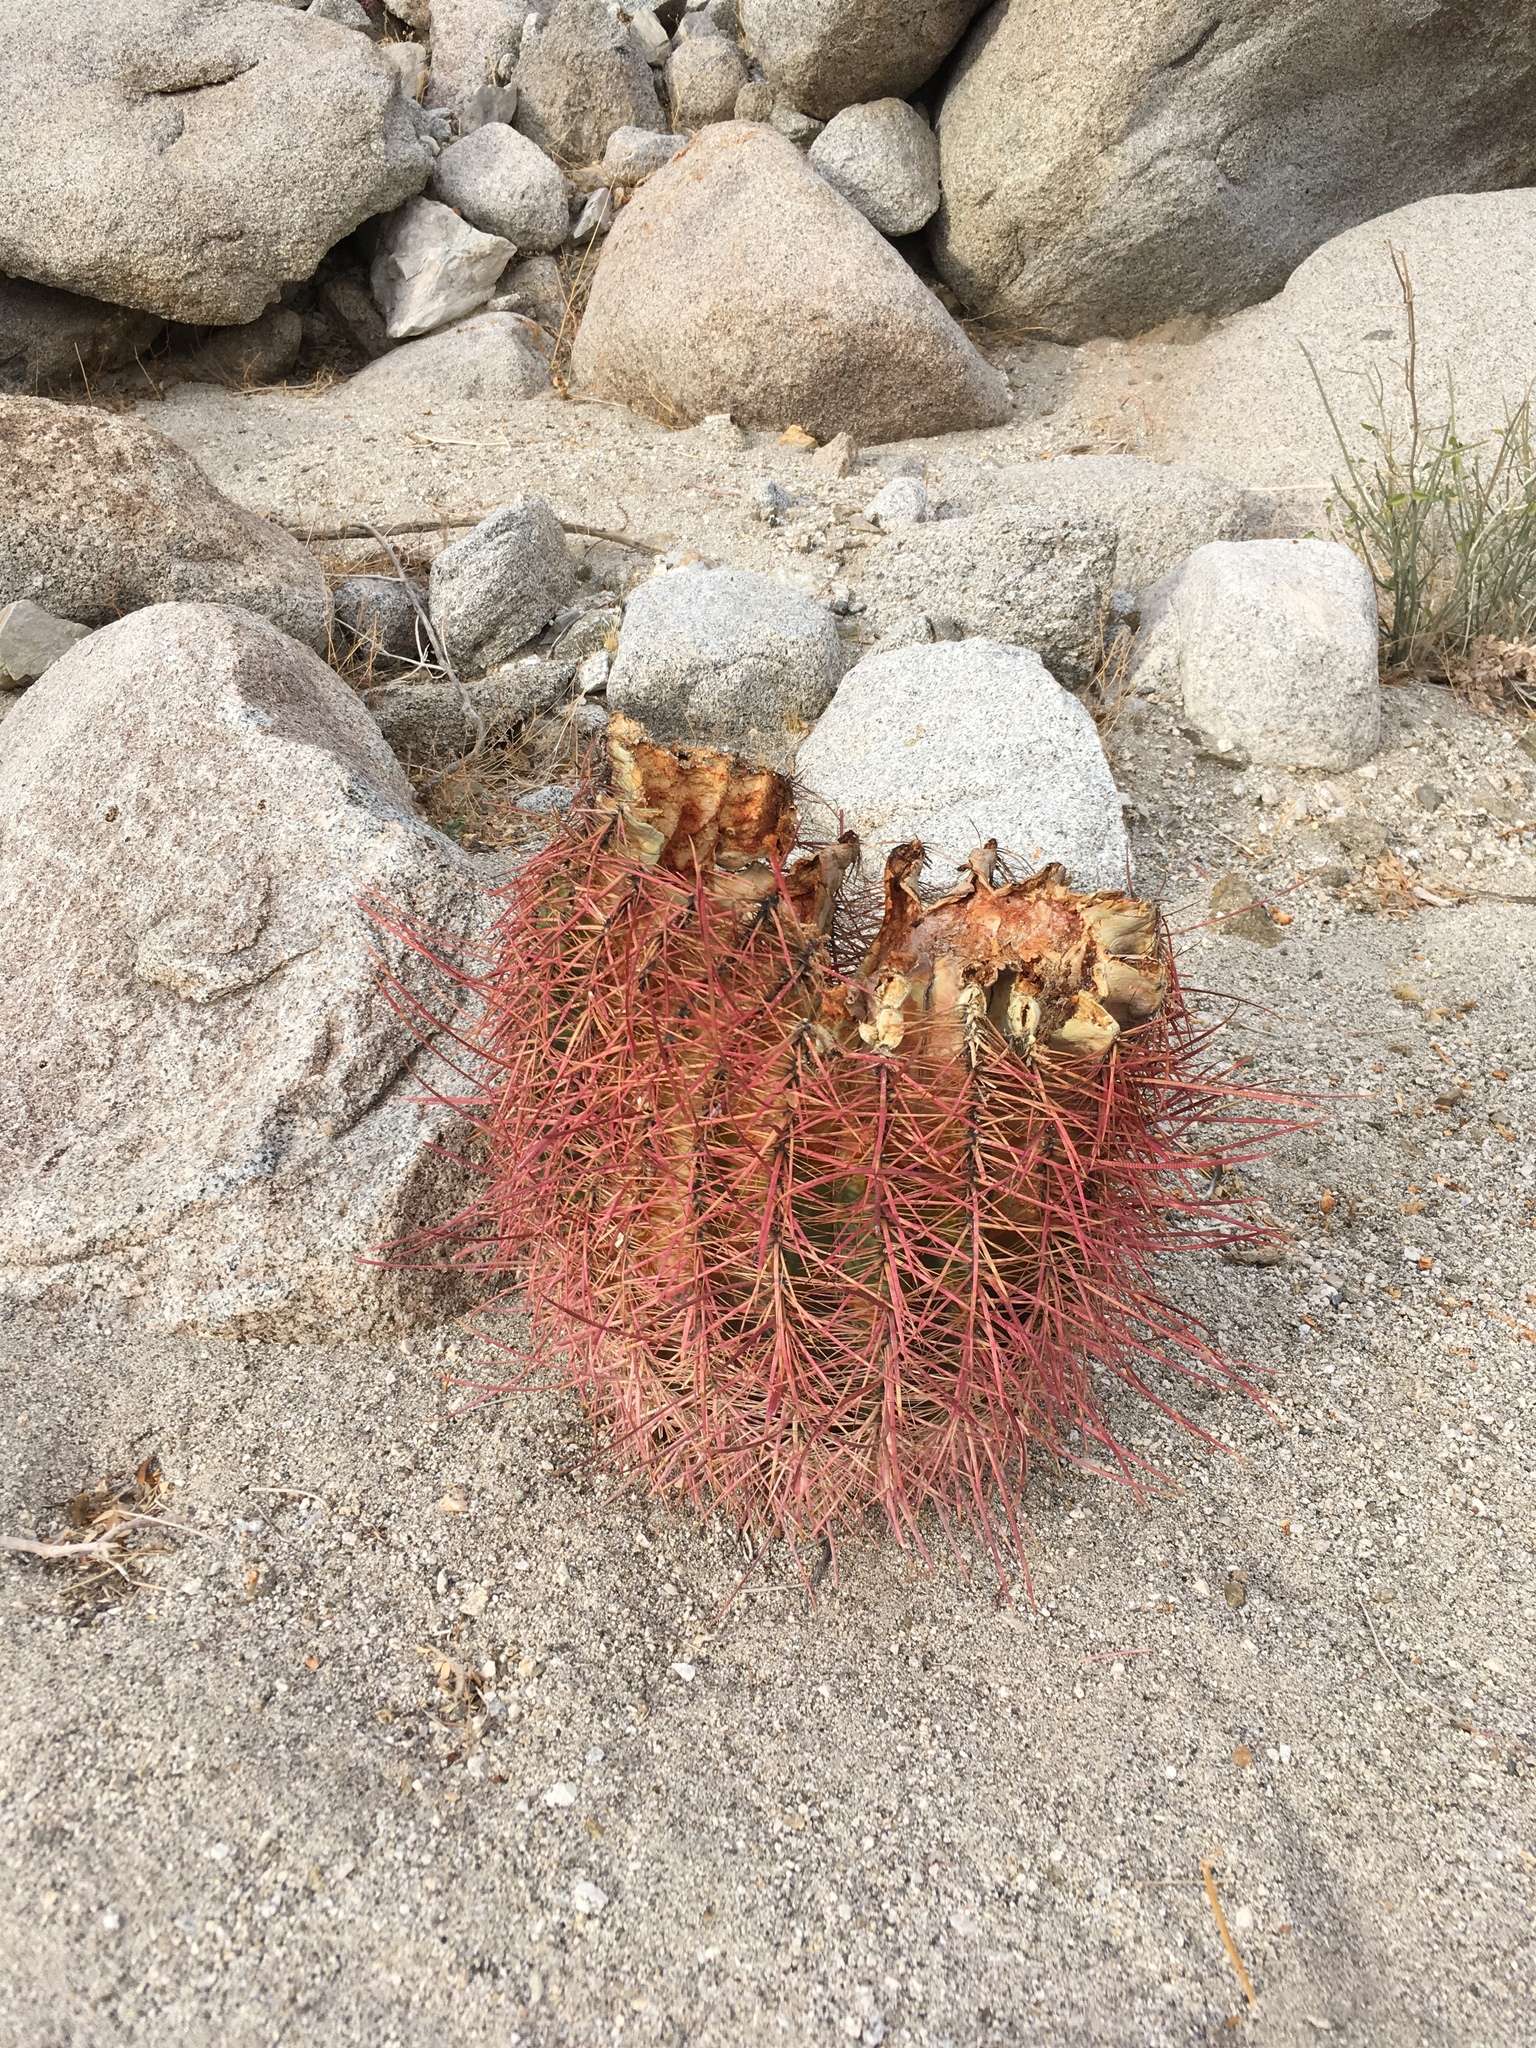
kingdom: Plantae
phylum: Tracheophyta
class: Magnoliopsida
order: Caryophyllales
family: Cactaceae
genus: Ferocactus
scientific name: Ferocactus cylindraceus
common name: California barrel cactus
